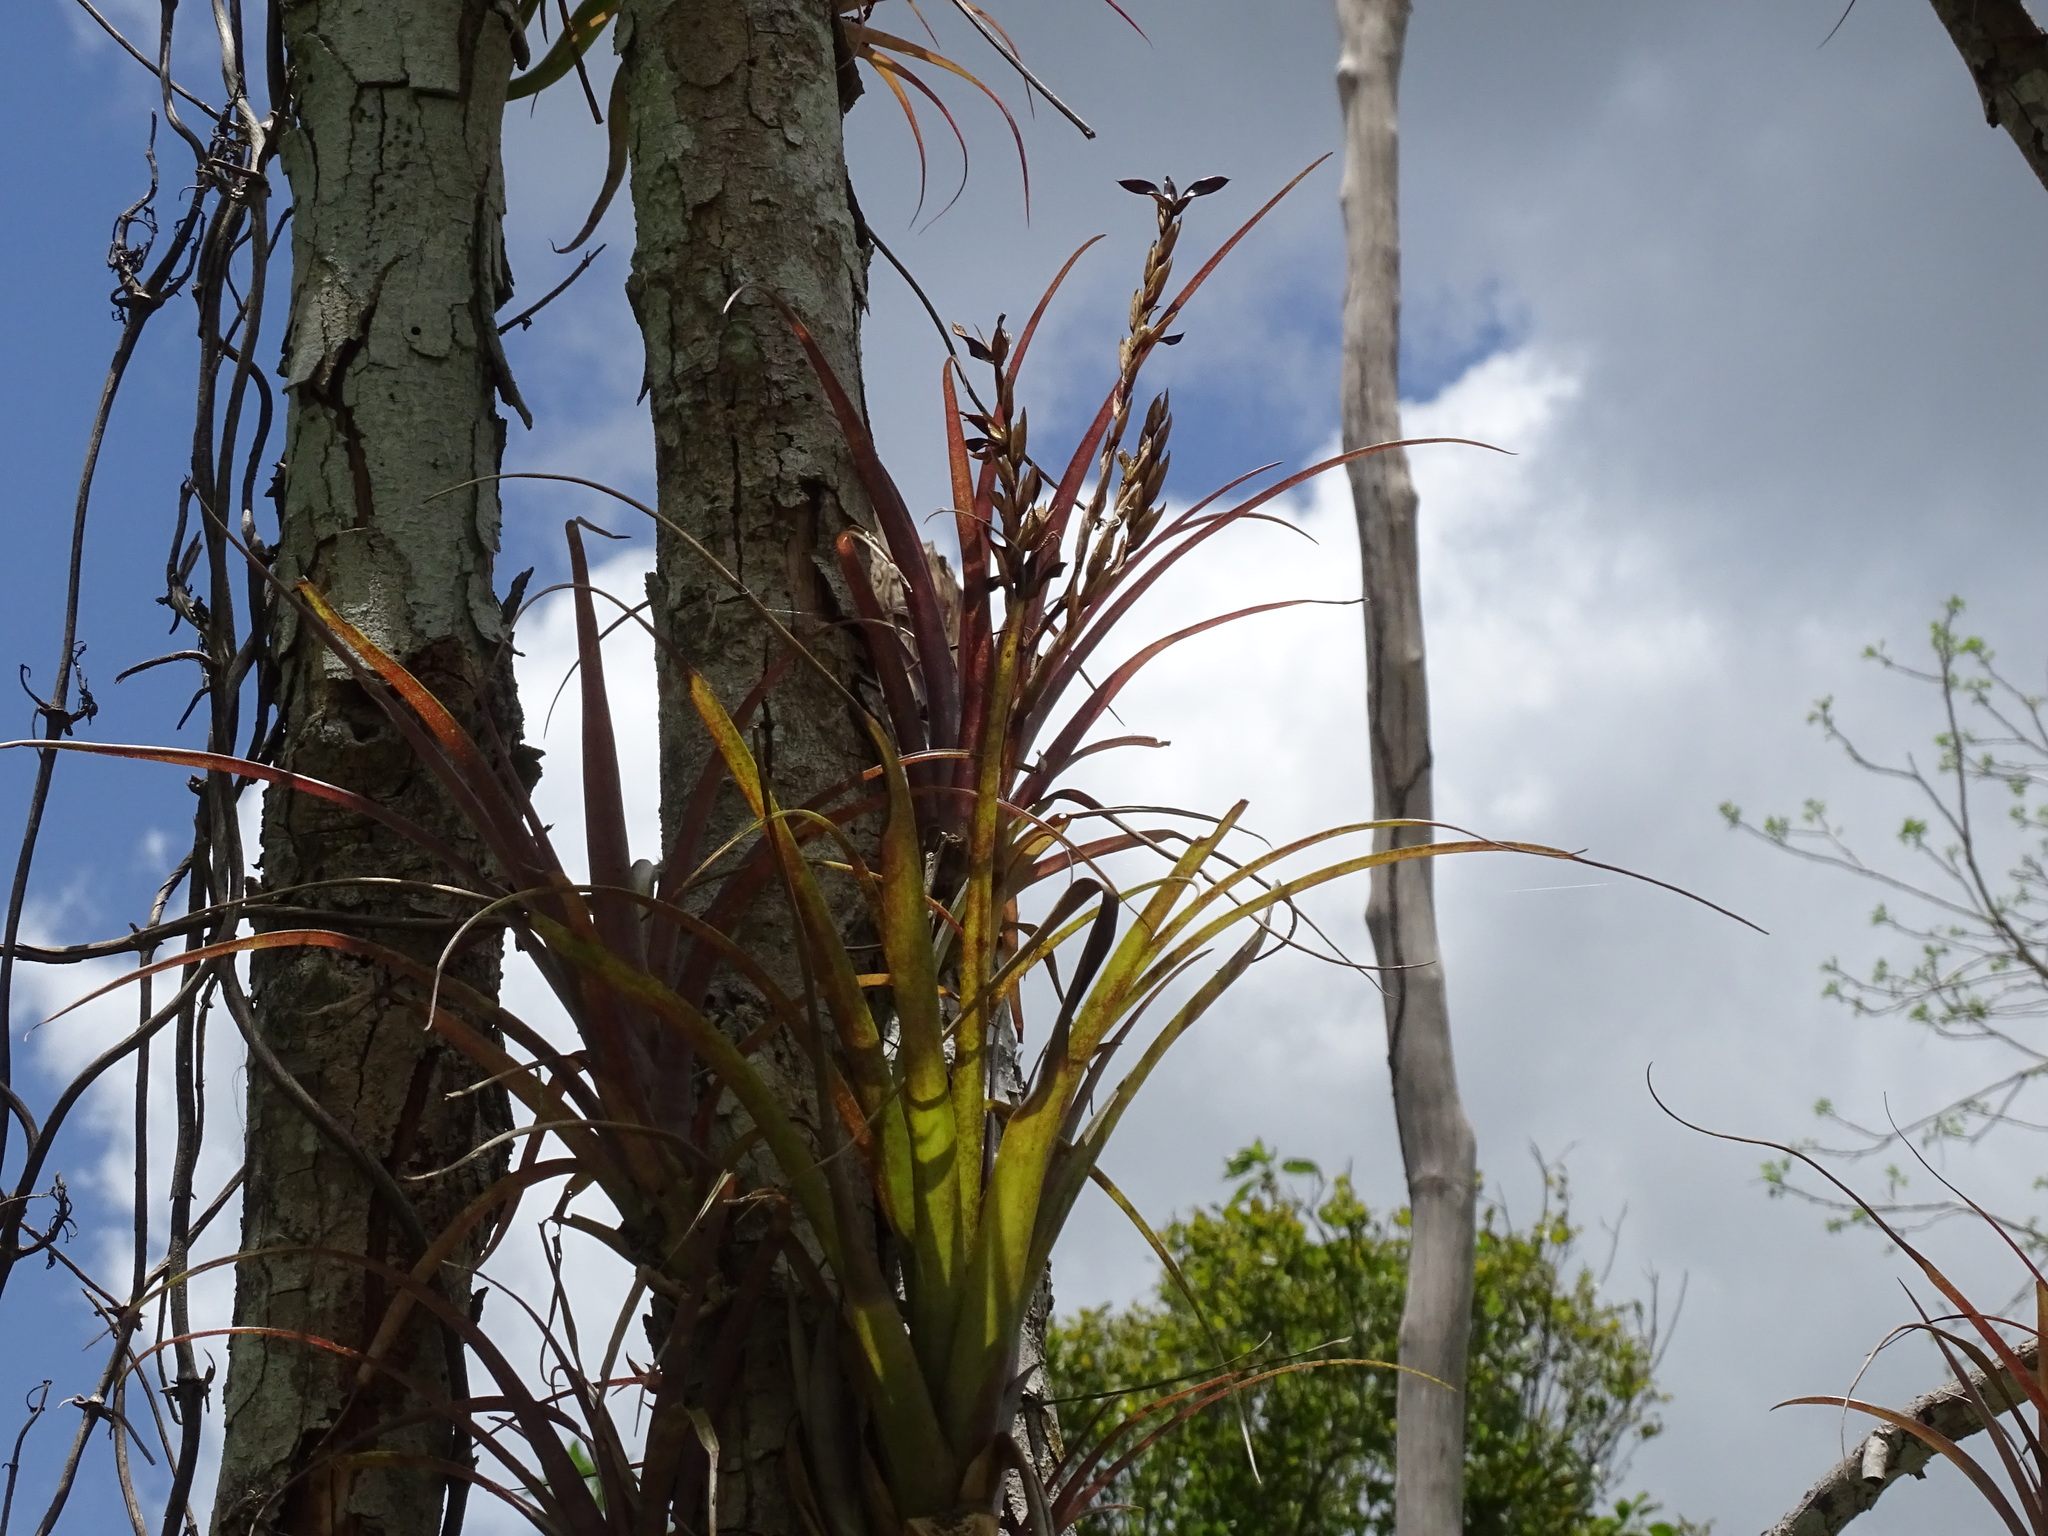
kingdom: Plantae
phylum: Tracheophyta
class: Liliopsida
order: Poales
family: Bromeliaceae
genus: Tillandsia
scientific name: Tillandsia dasyliriifolia
